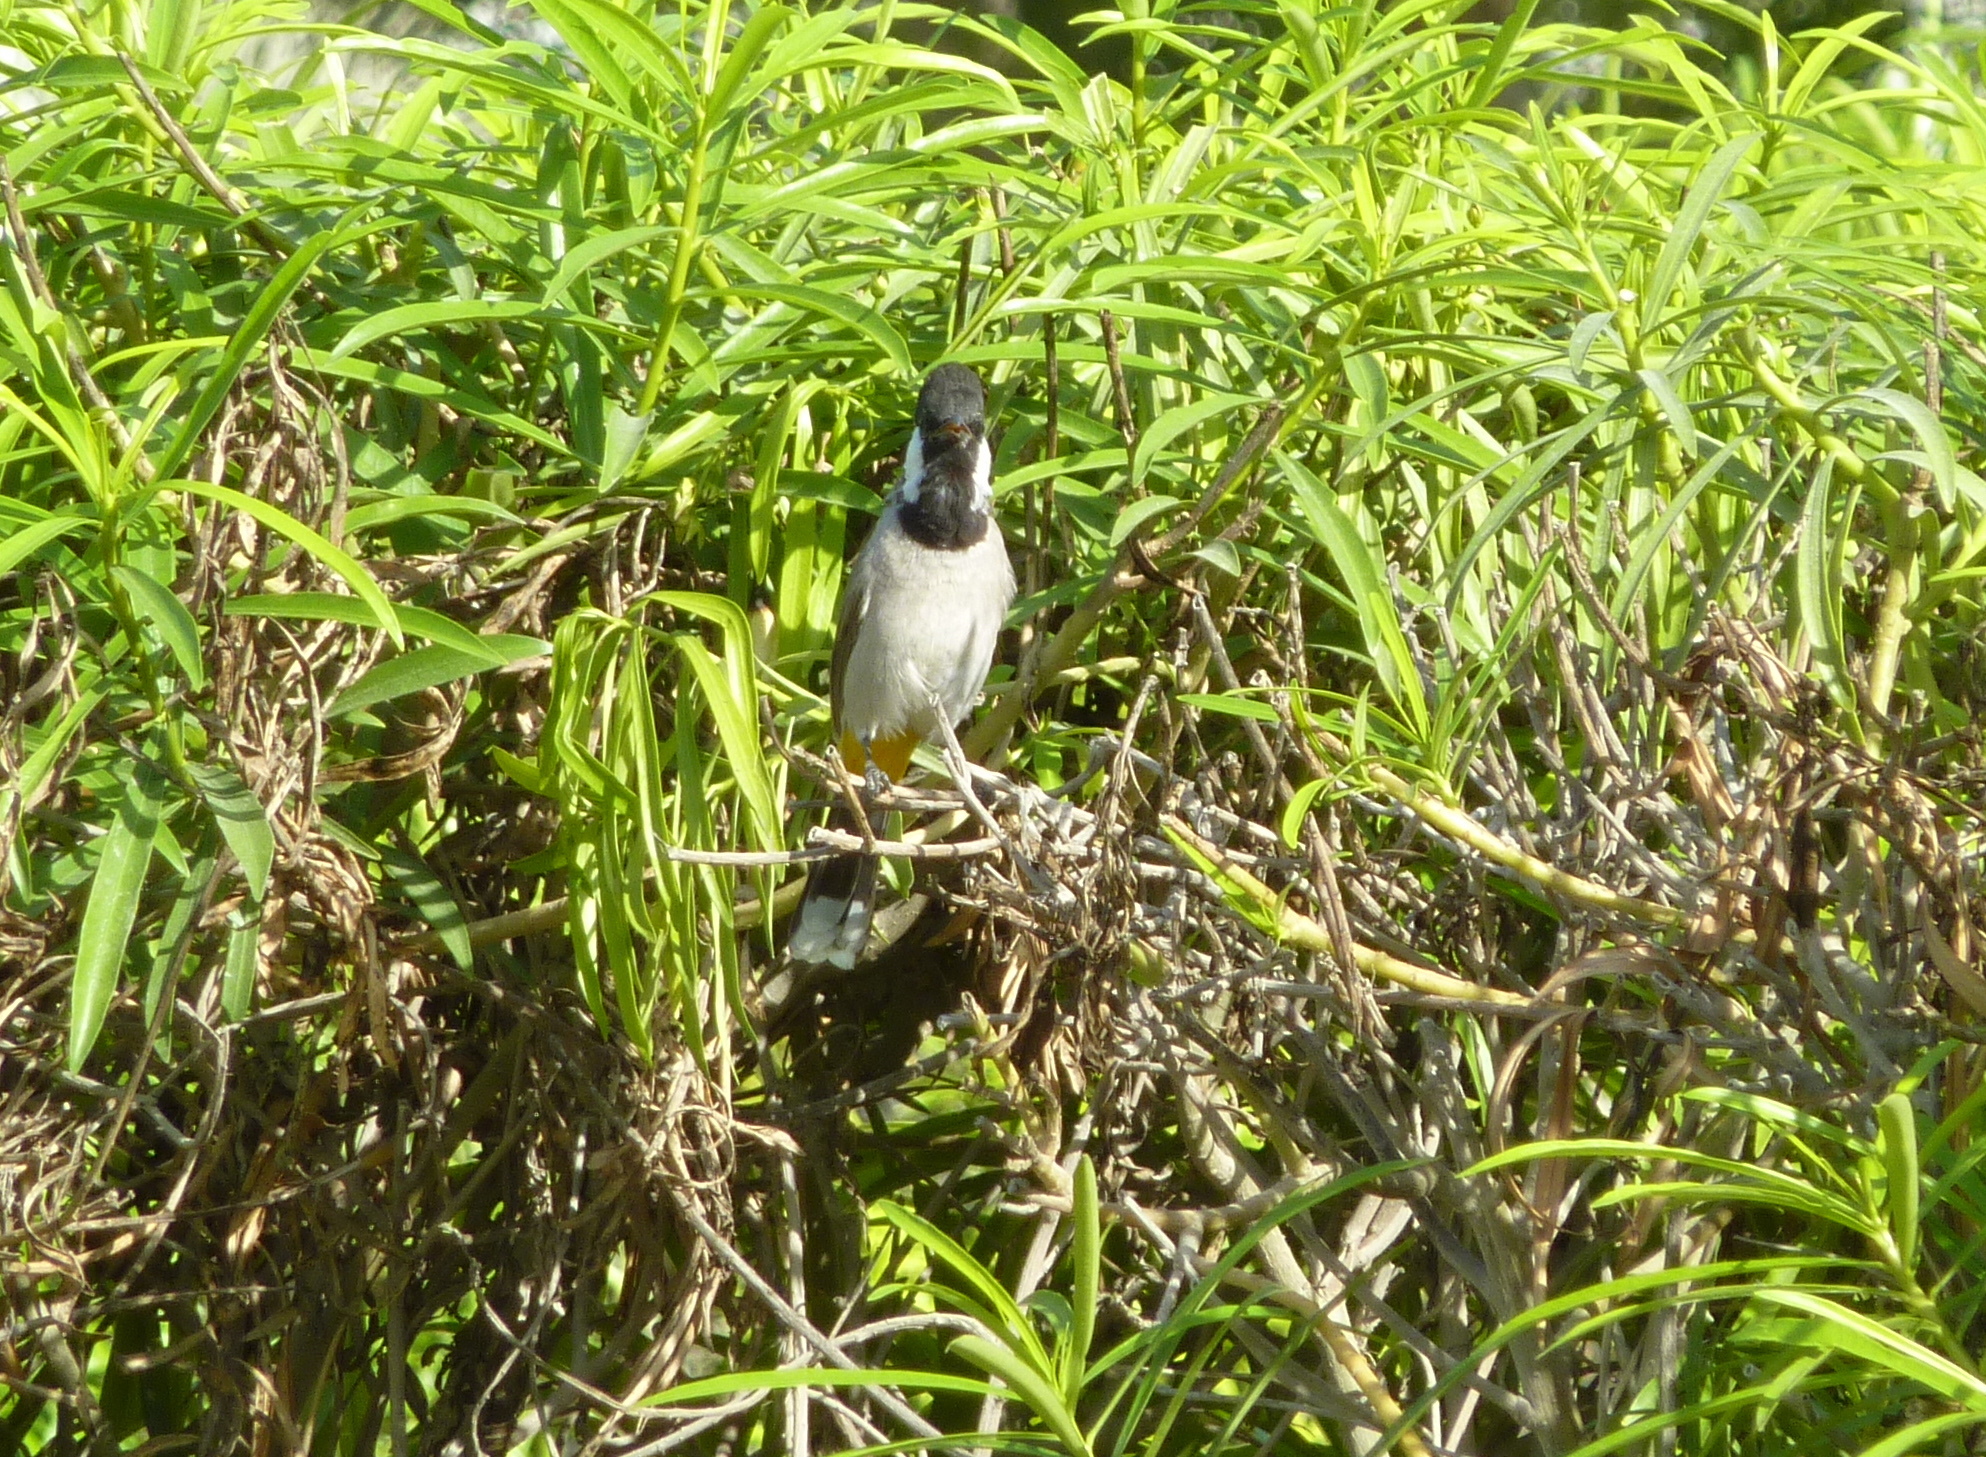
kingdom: Animalia
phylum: Chordata
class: Aves
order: Passeriformes
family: Pycnonotidae
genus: Pycnonotus
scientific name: Pycnonotus leucotis
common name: White-eared bulbul
